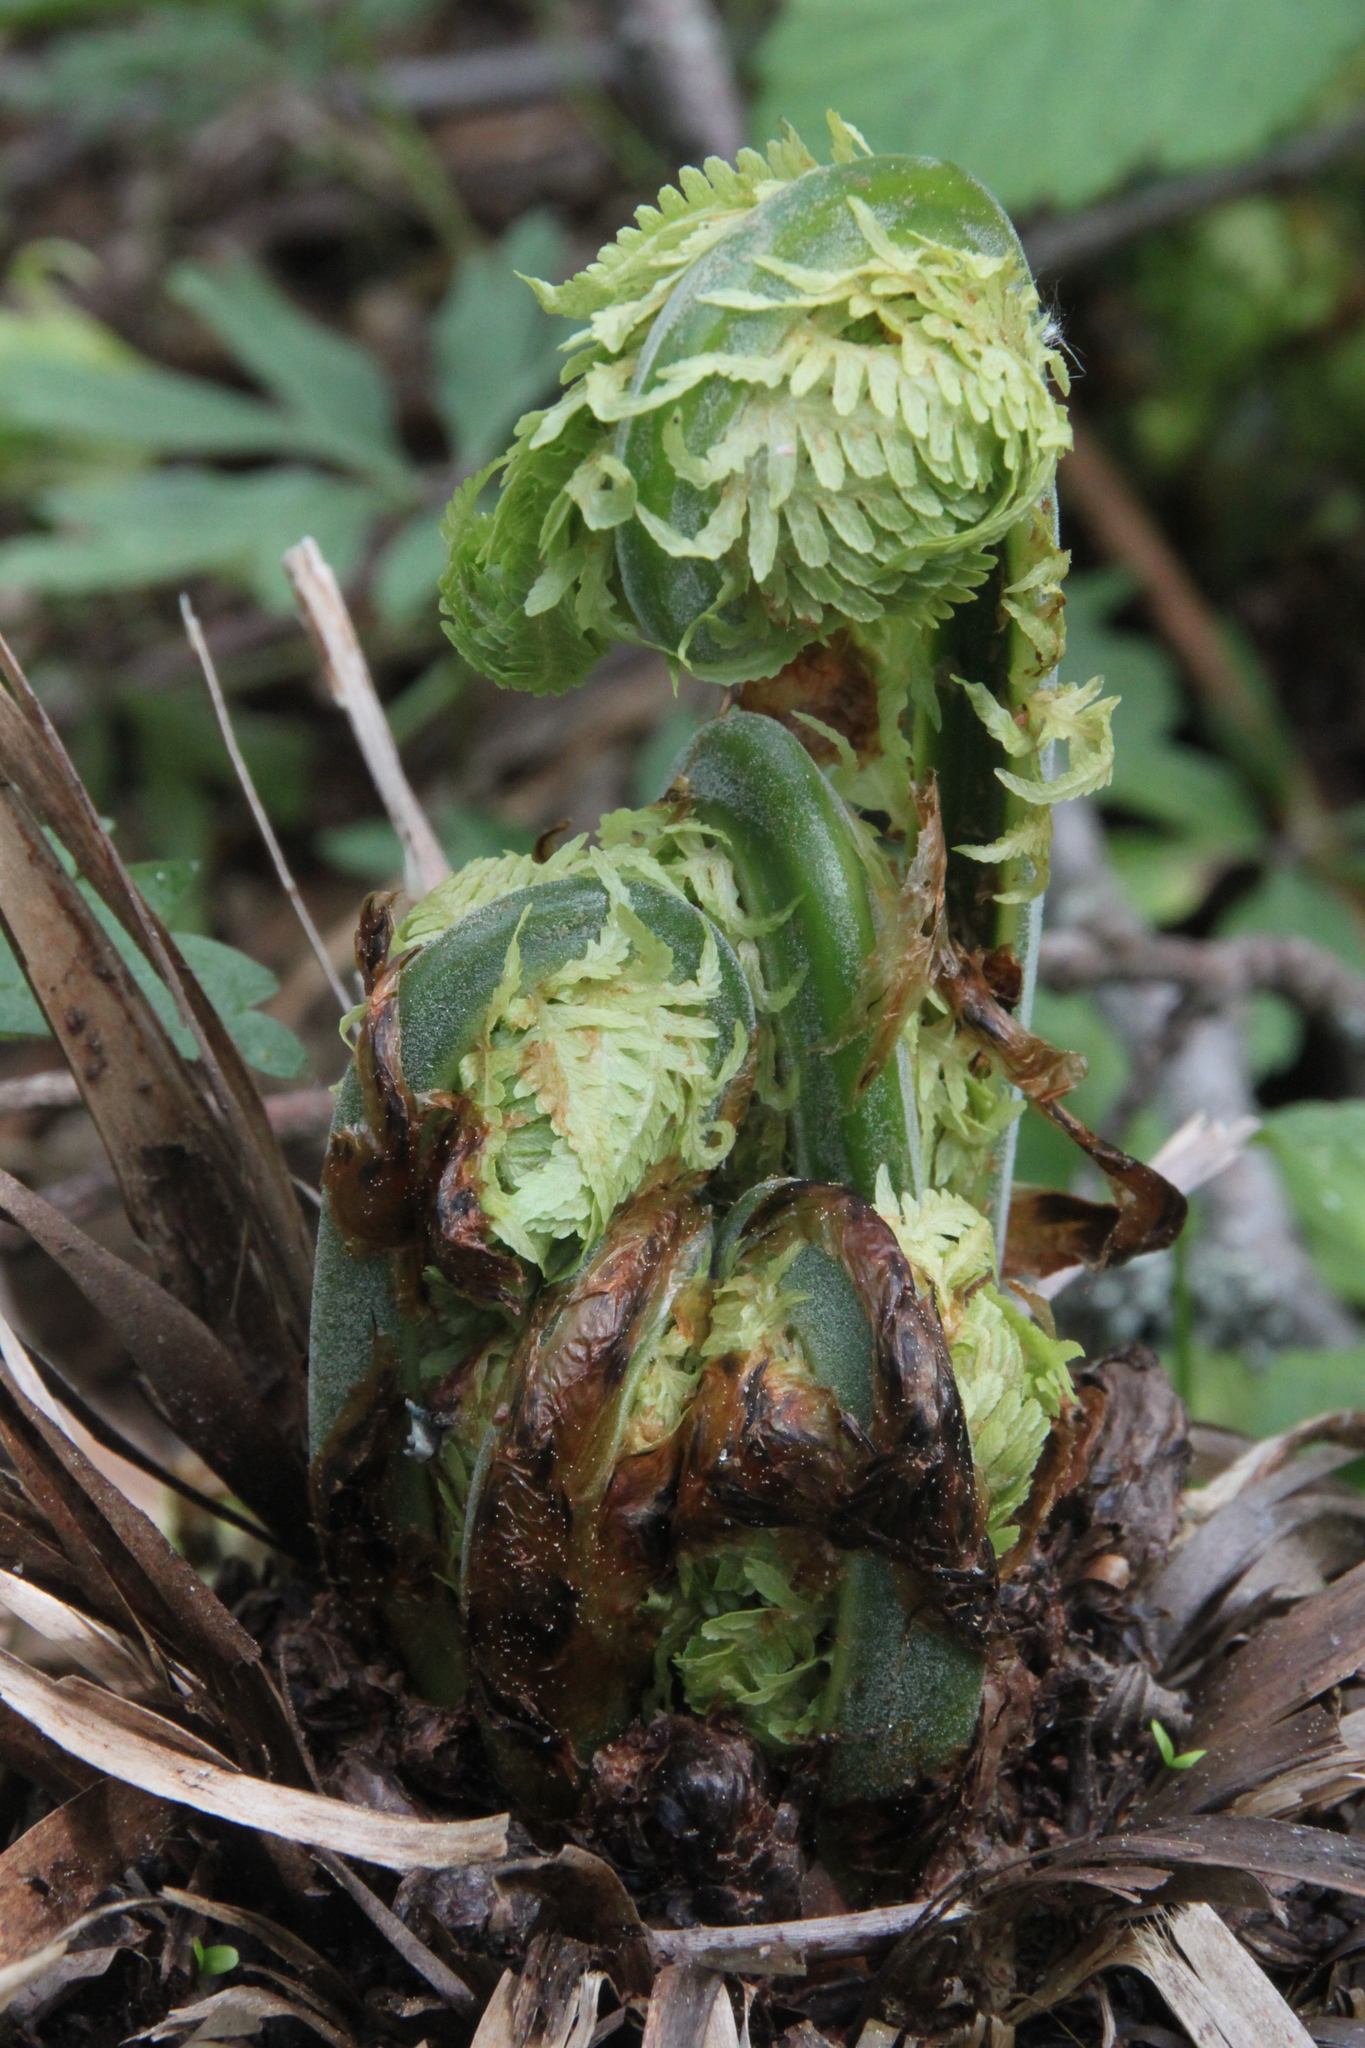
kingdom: Plantae
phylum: Tracheophyta
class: Polypodiopsida
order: Polypodiales
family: Onocleaceae
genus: Matteuccia
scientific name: Matteuccia struthiopteris
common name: Ostrich fern
